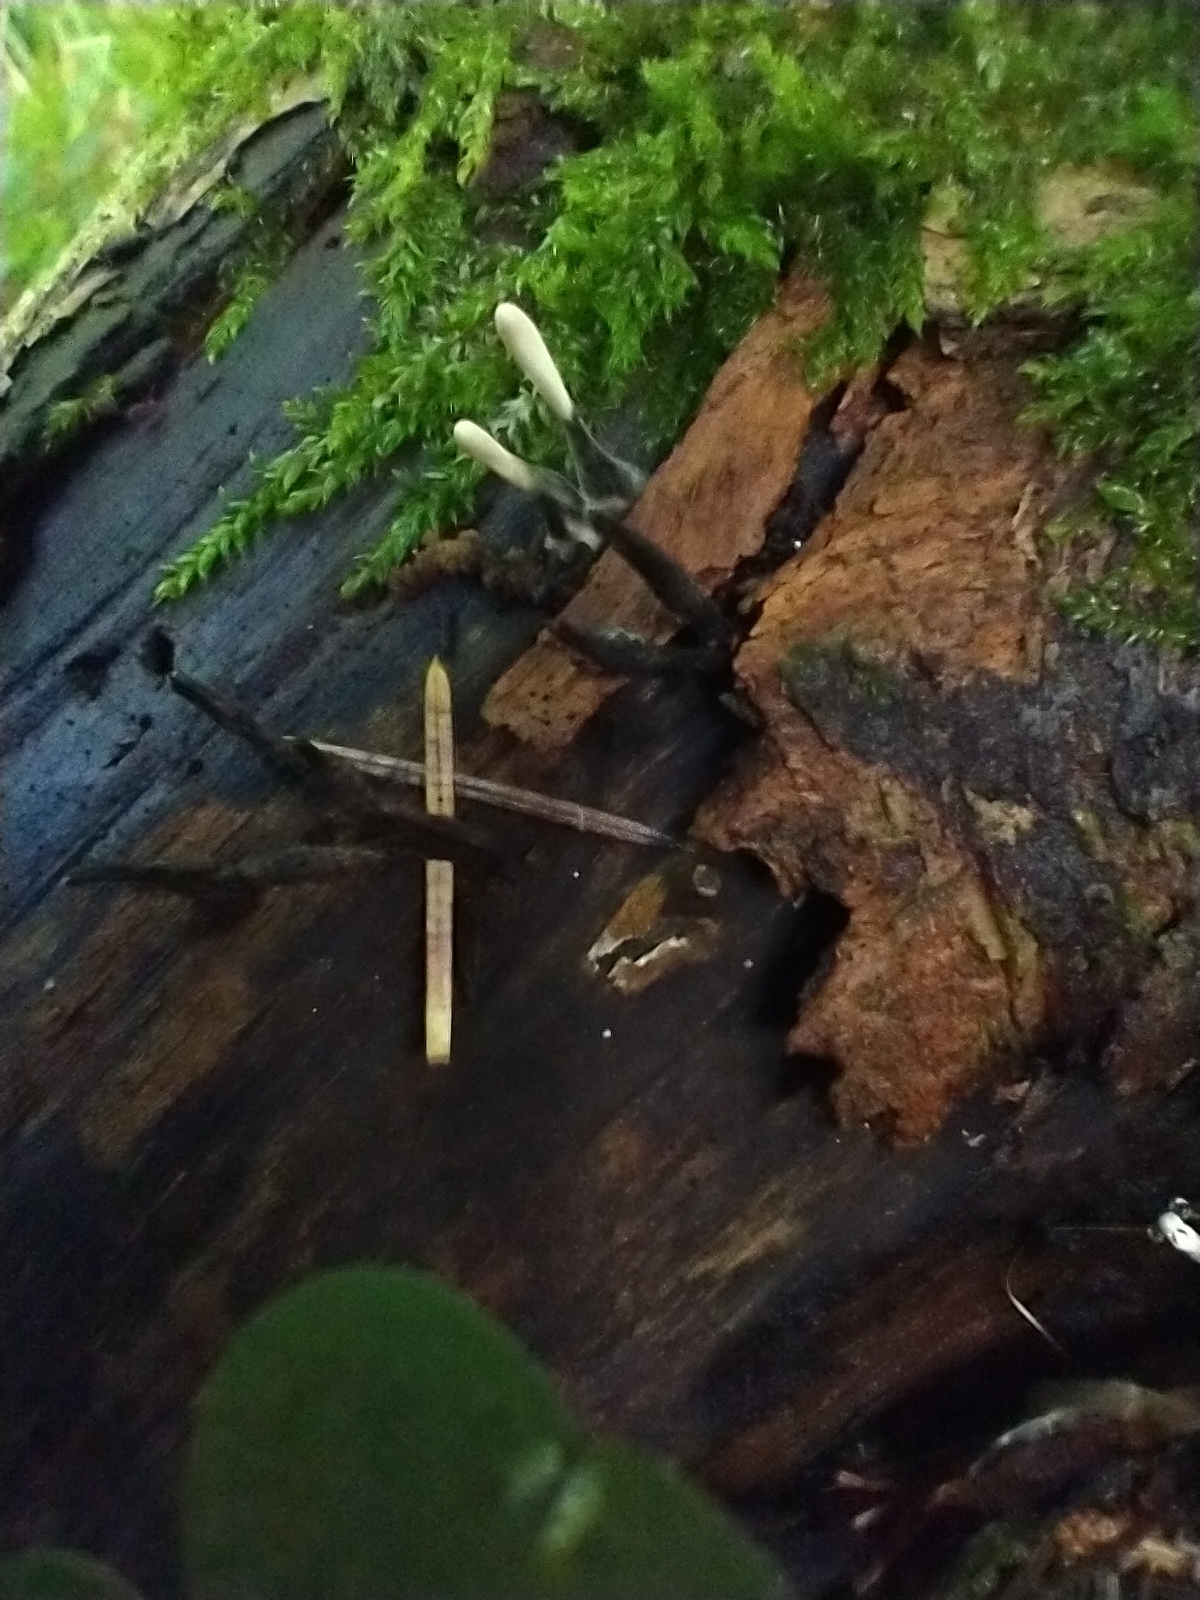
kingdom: Fungi
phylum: Ascomycota
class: Sordariomycetes
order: Xylariales
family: Xylariaceae
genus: Xylaria
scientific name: Xylaria hypoxylon
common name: Candle-snuff fungus
